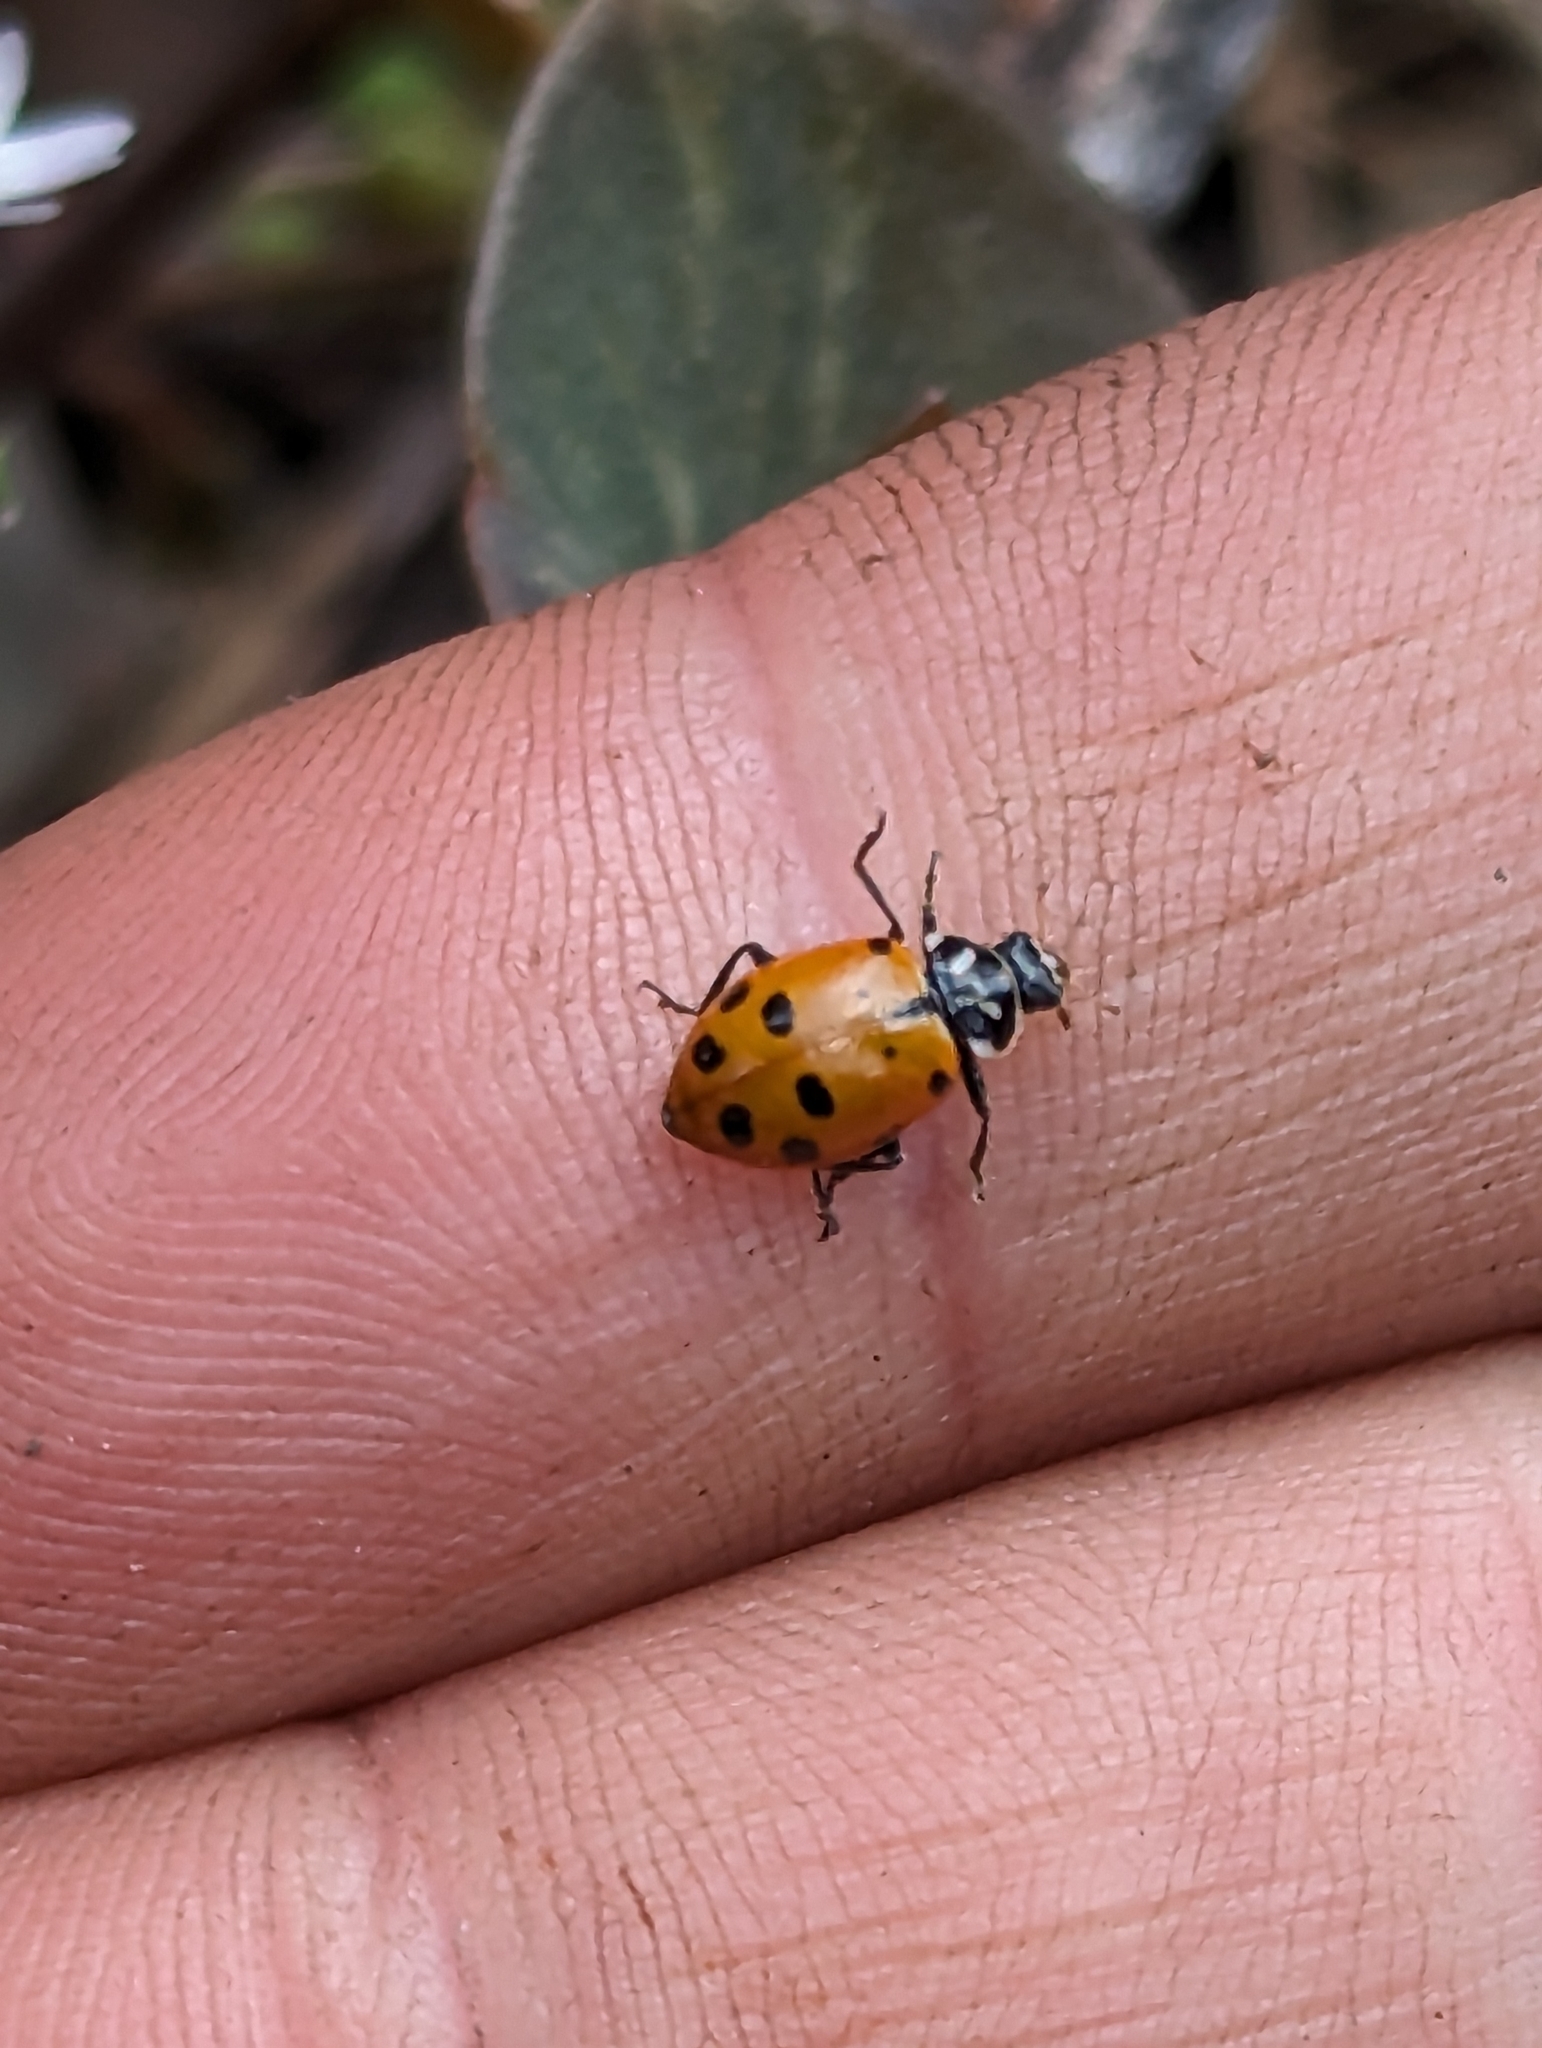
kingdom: Animalia
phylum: Arthropoda
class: Insecta
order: Coleoptera
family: Coccinellidae
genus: Hippodamia
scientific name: Hippodamia convergens
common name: Convergent lady beetle
